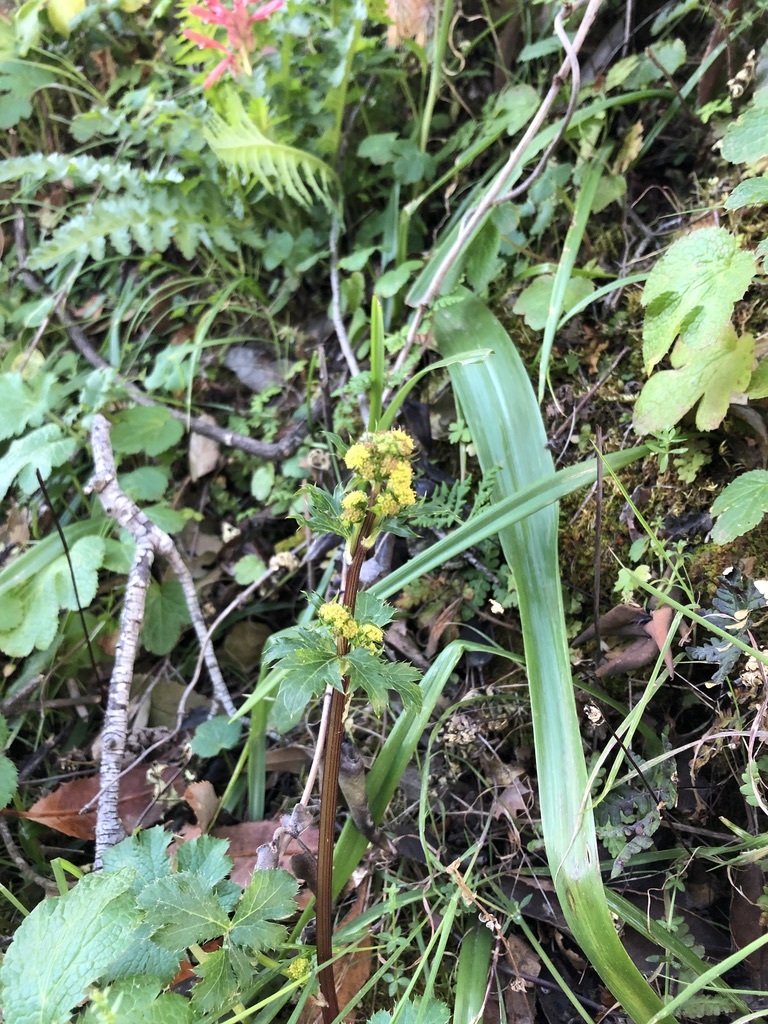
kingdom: Plantae
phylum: Tracheophyta
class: Magnoliopsida
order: Apiales
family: Apiaceae
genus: Sanicula
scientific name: Sanicula crassicaulis
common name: Western snakeroot
